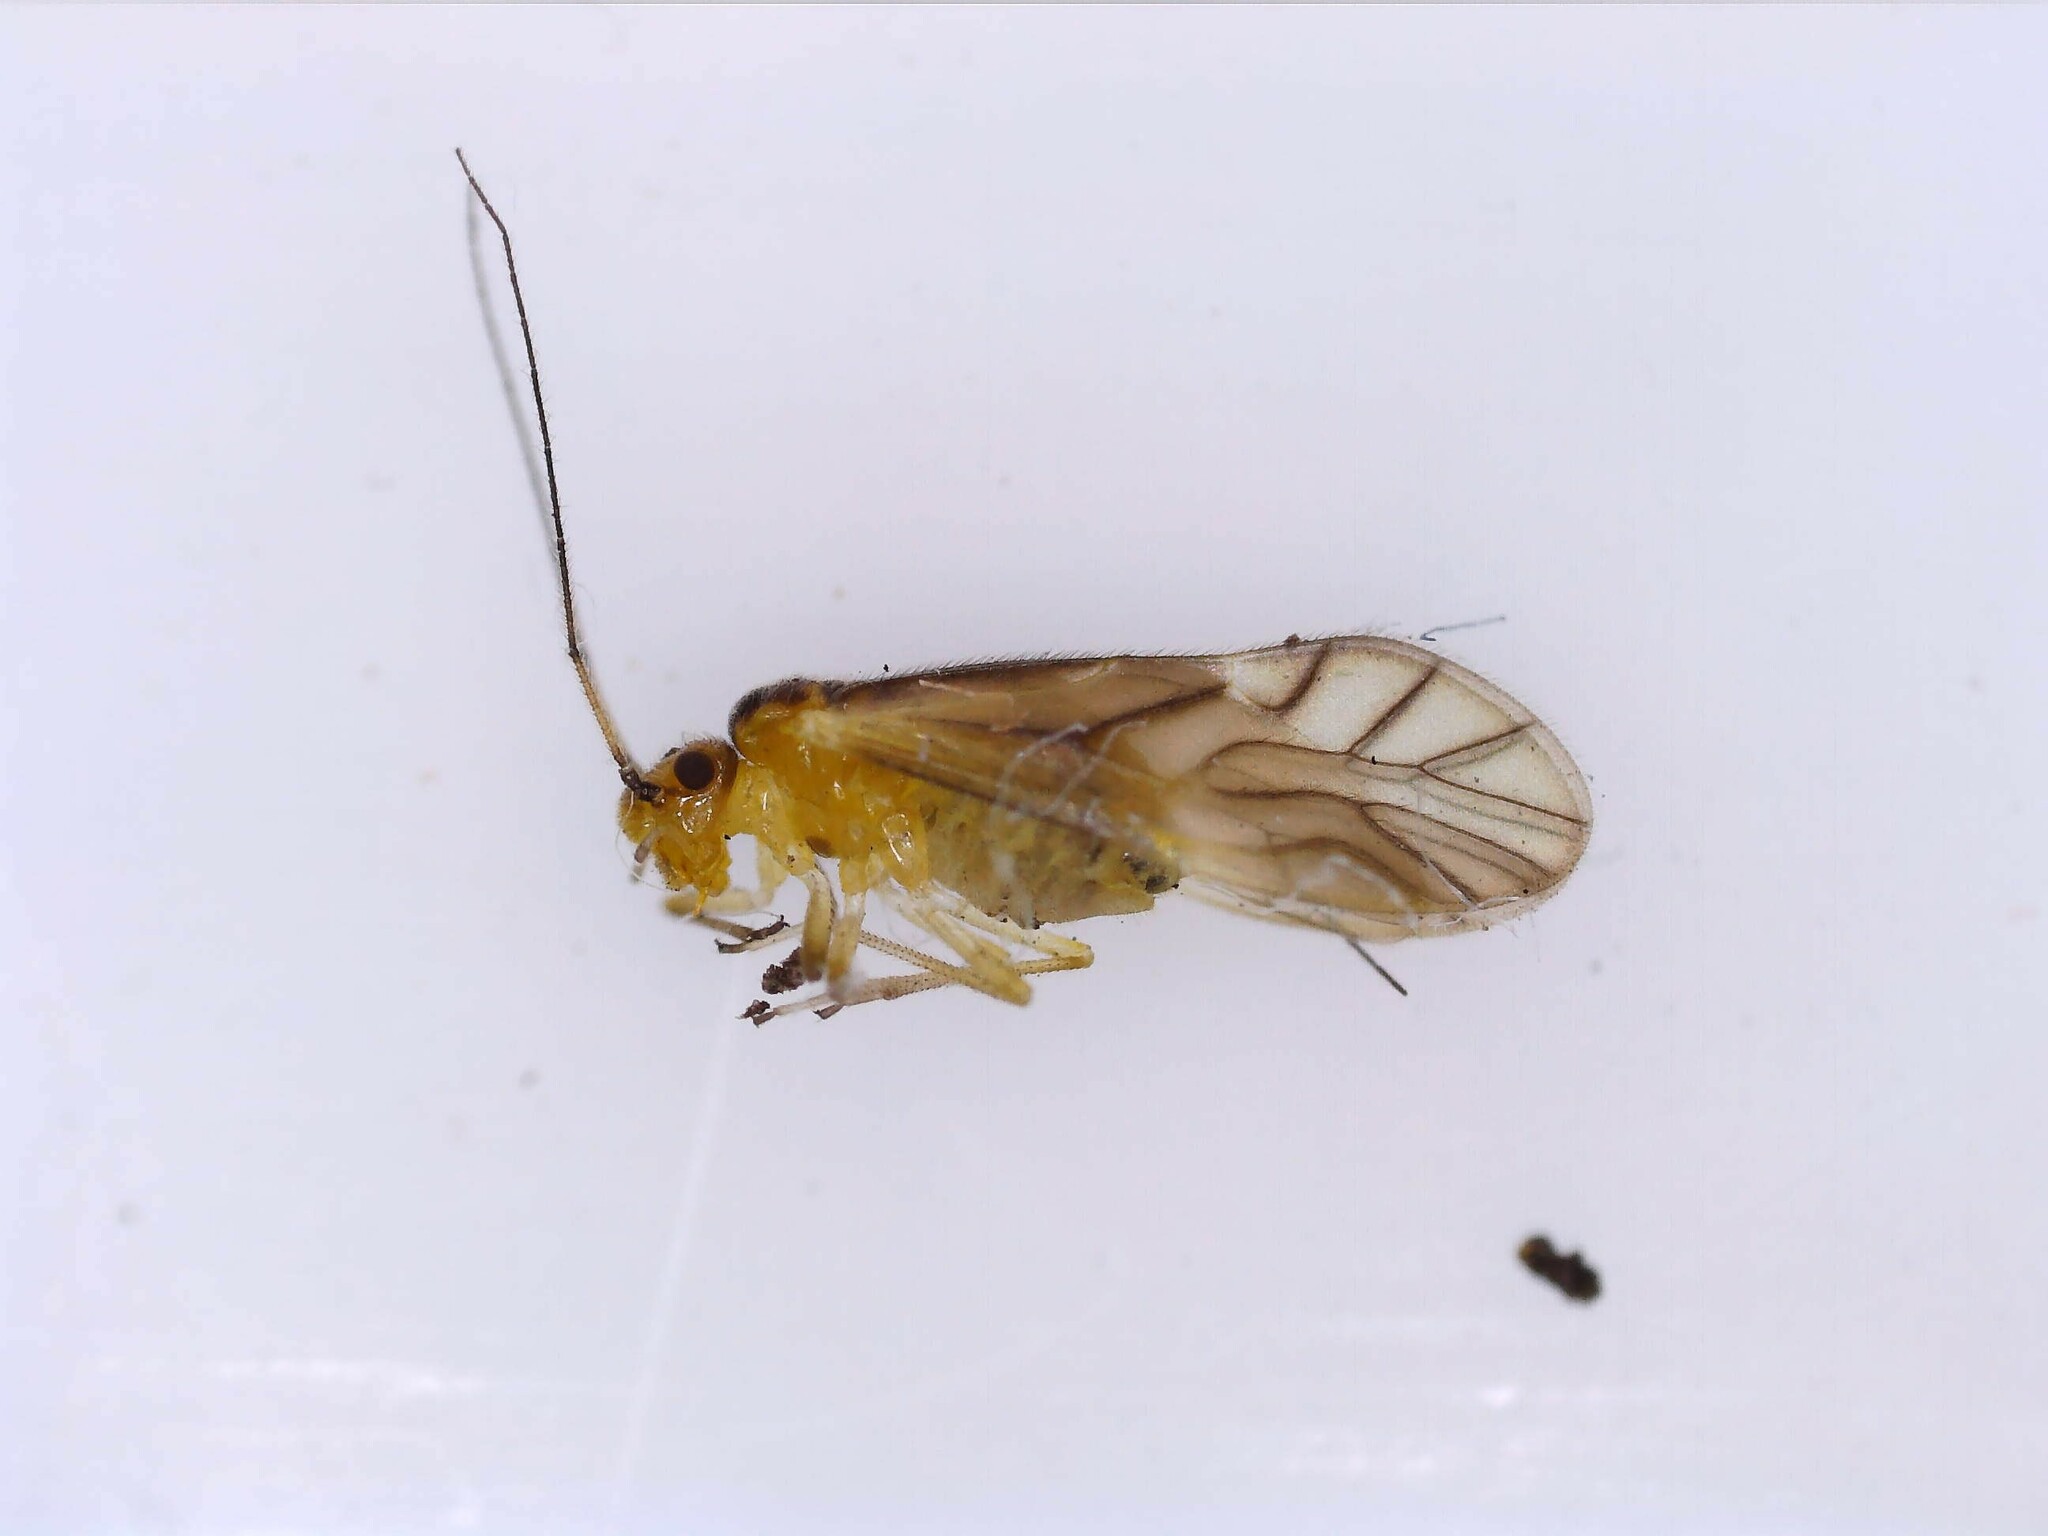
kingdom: Animalia
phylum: Arthropoda
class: Insecta
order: Psocodea
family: Caeciliusidae
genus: Valenzuela
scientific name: Valenzuela flavidus
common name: Yellow barklouse
